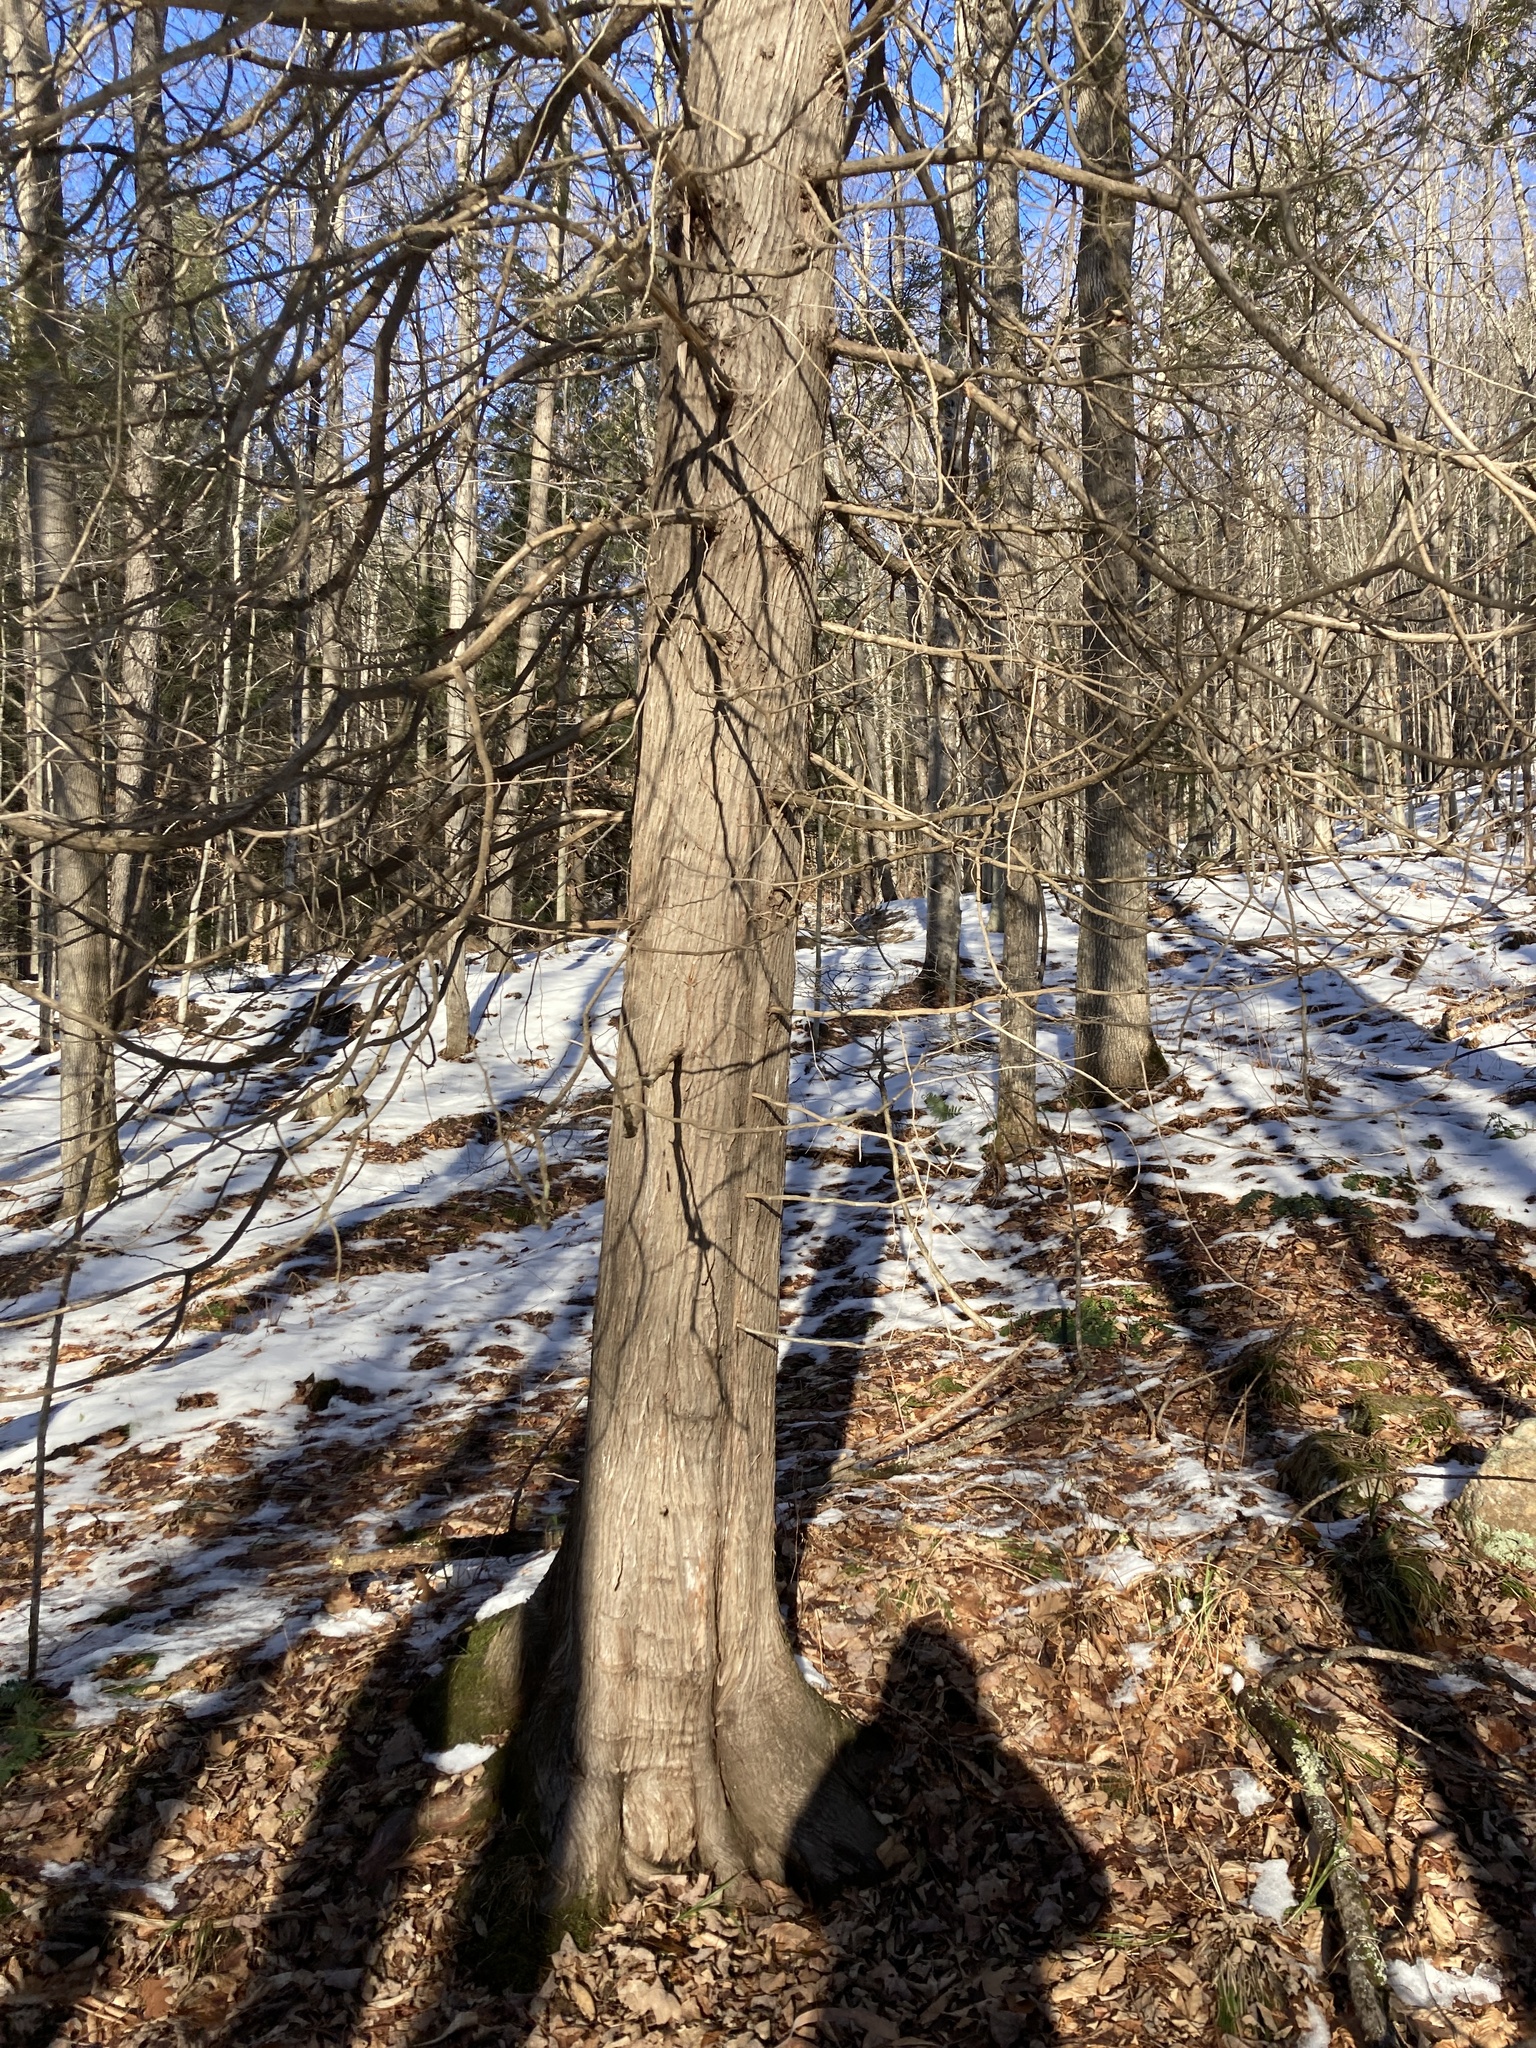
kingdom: Plantae
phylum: Tracheophyta
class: Pinopsida
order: Pinales
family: Cupressaceae
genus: Thuja
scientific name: Thuja occidentalis
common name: Northern white-cedar
